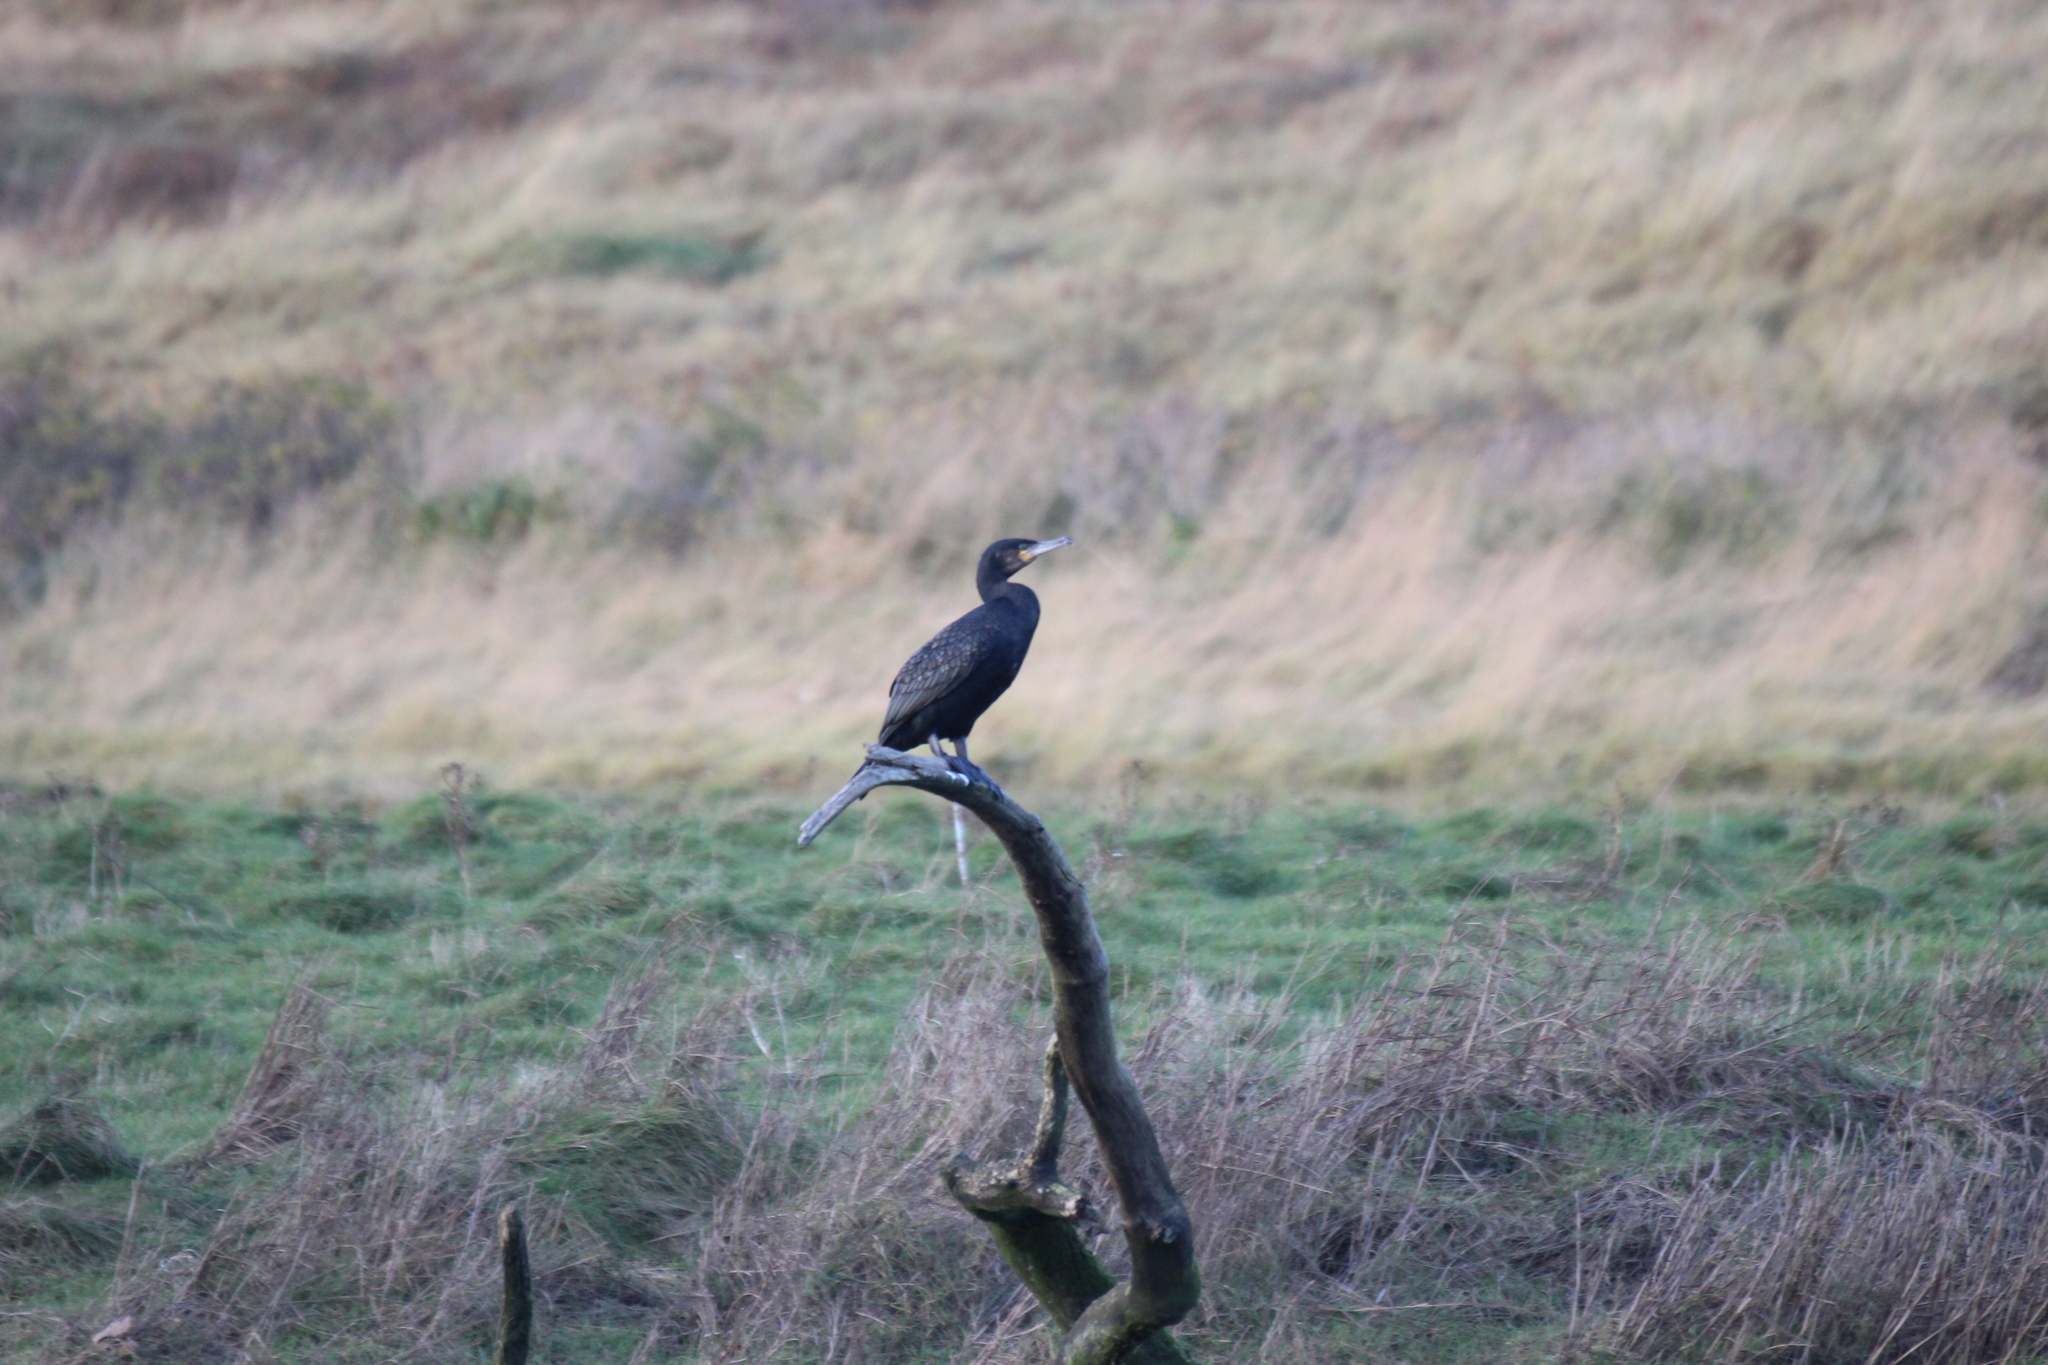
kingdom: Animalia
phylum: Chordata
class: Aves
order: Suliformes
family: Phalacrocoracidae
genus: Phalacrocorax
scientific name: Phalacrocorax carbo
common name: Great cormorant
